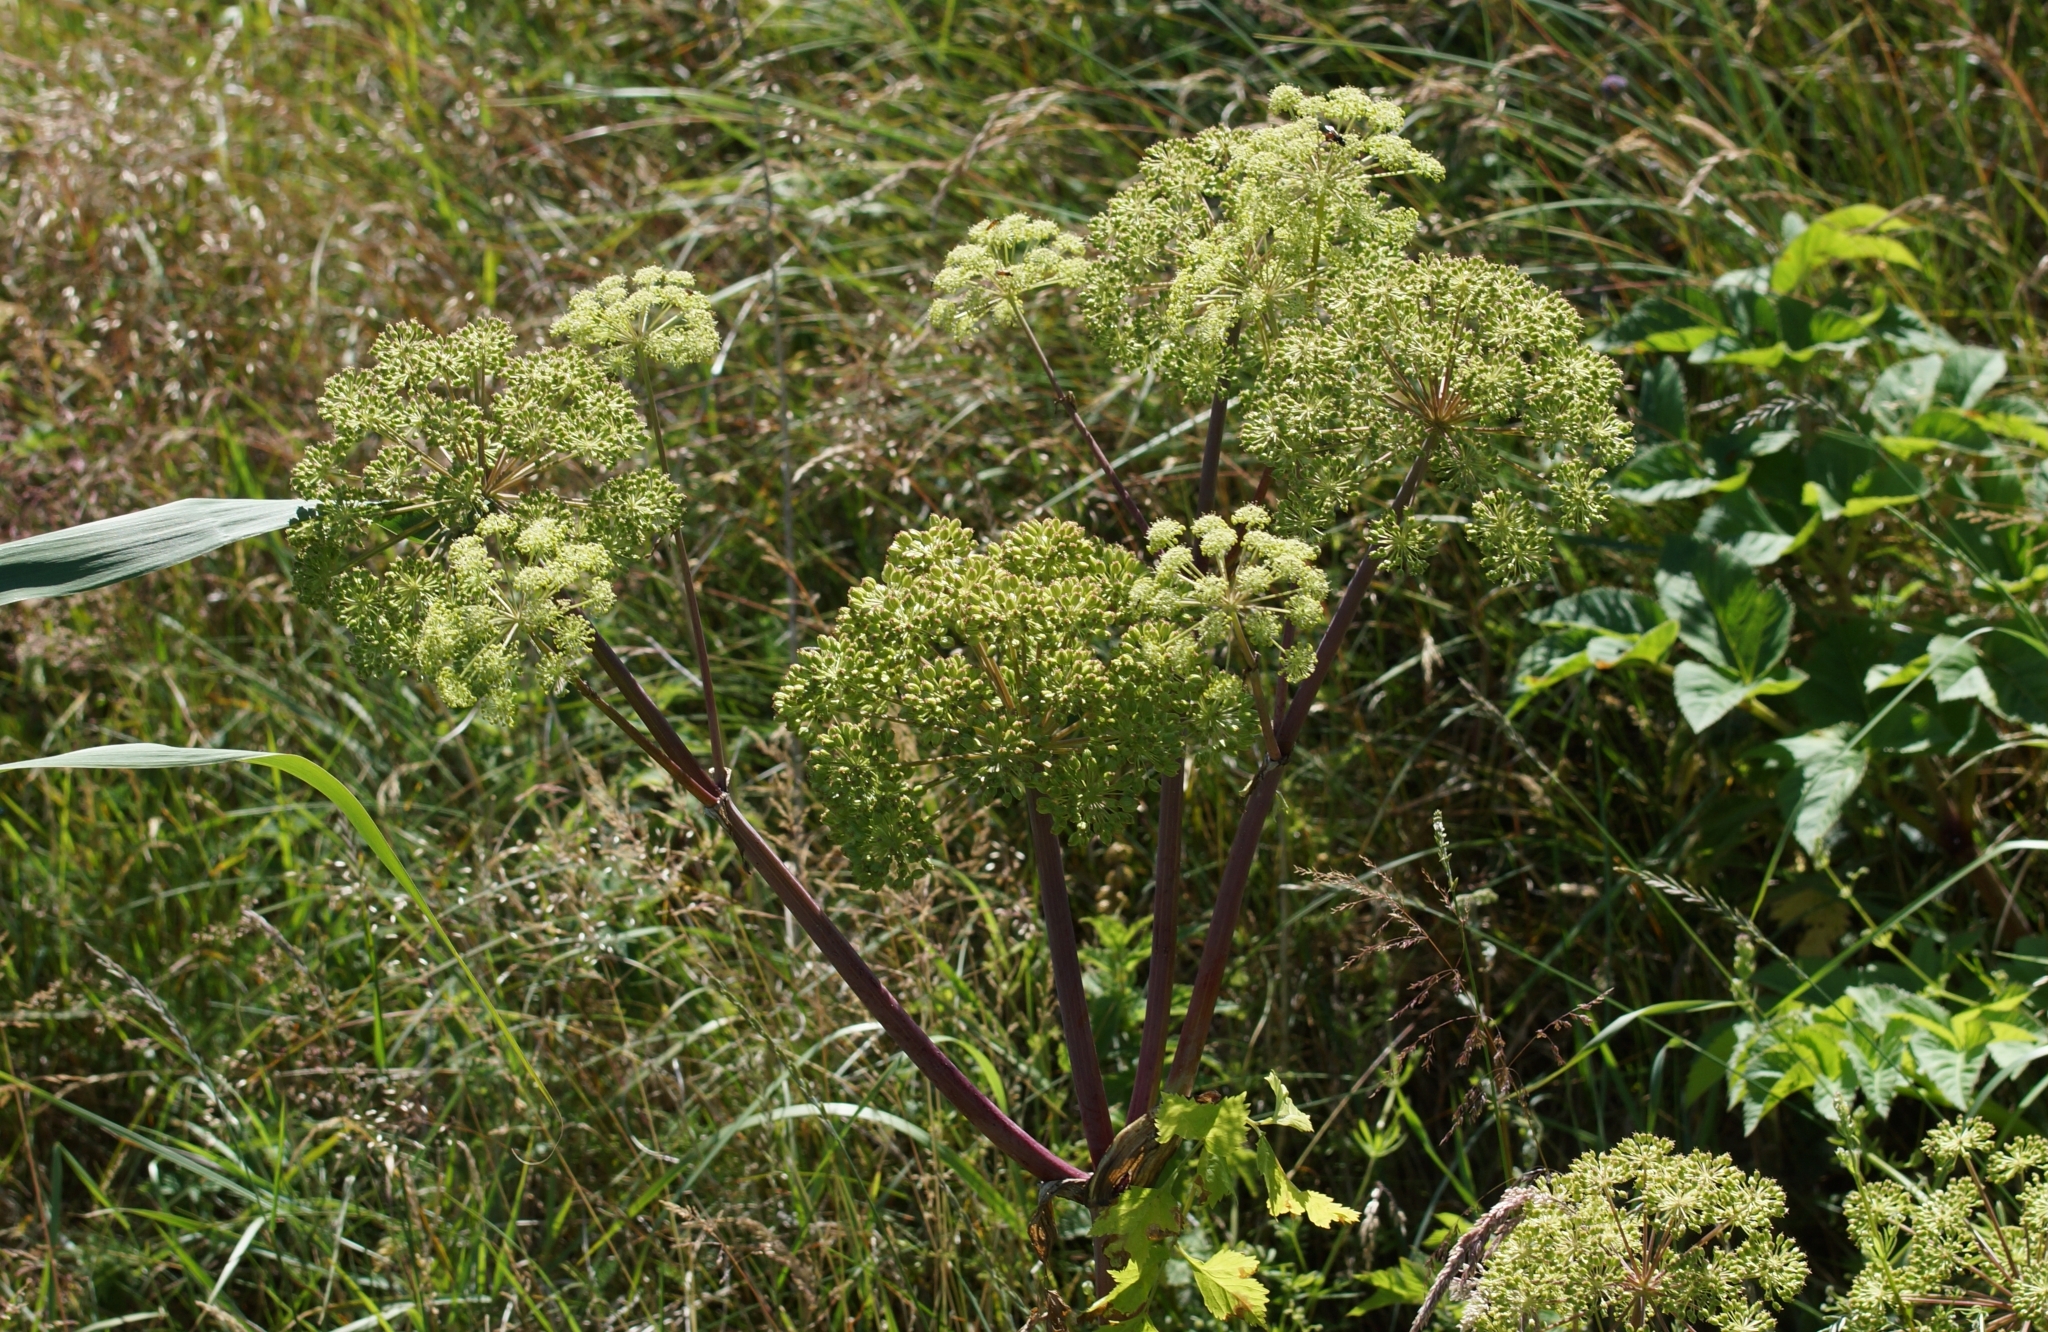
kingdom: Plantae
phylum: Tracheophyta
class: Magnoliopsida
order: Apiales
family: Apiaceae
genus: Angelica
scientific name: Angelica archangelica
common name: Garden angelica
